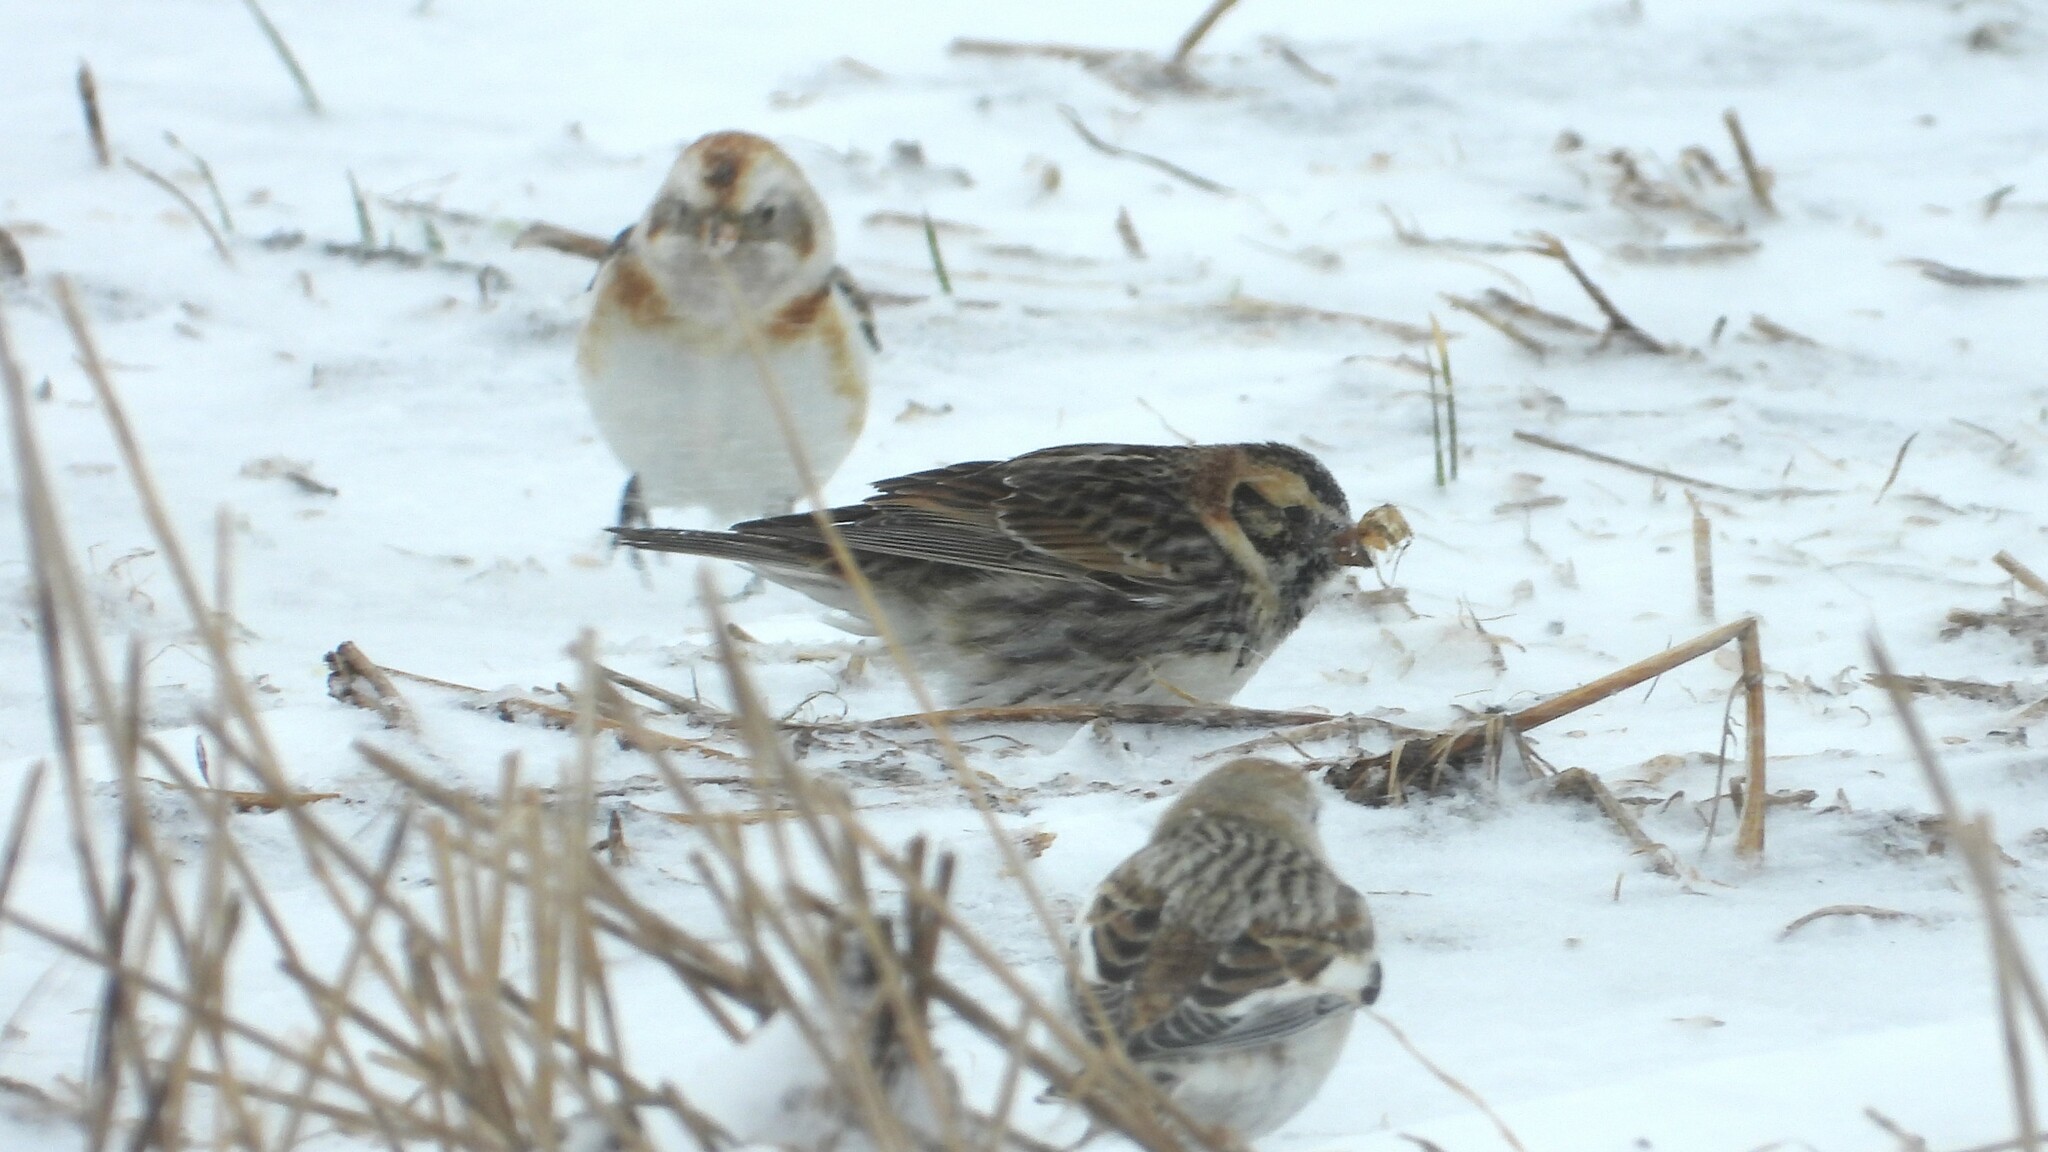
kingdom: Animalia
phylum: Chordata
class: Aves
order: Passeriformes
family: Calcariidae
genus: Calcarius
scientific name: Calcarius lapponicus
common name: Lapland longspur
